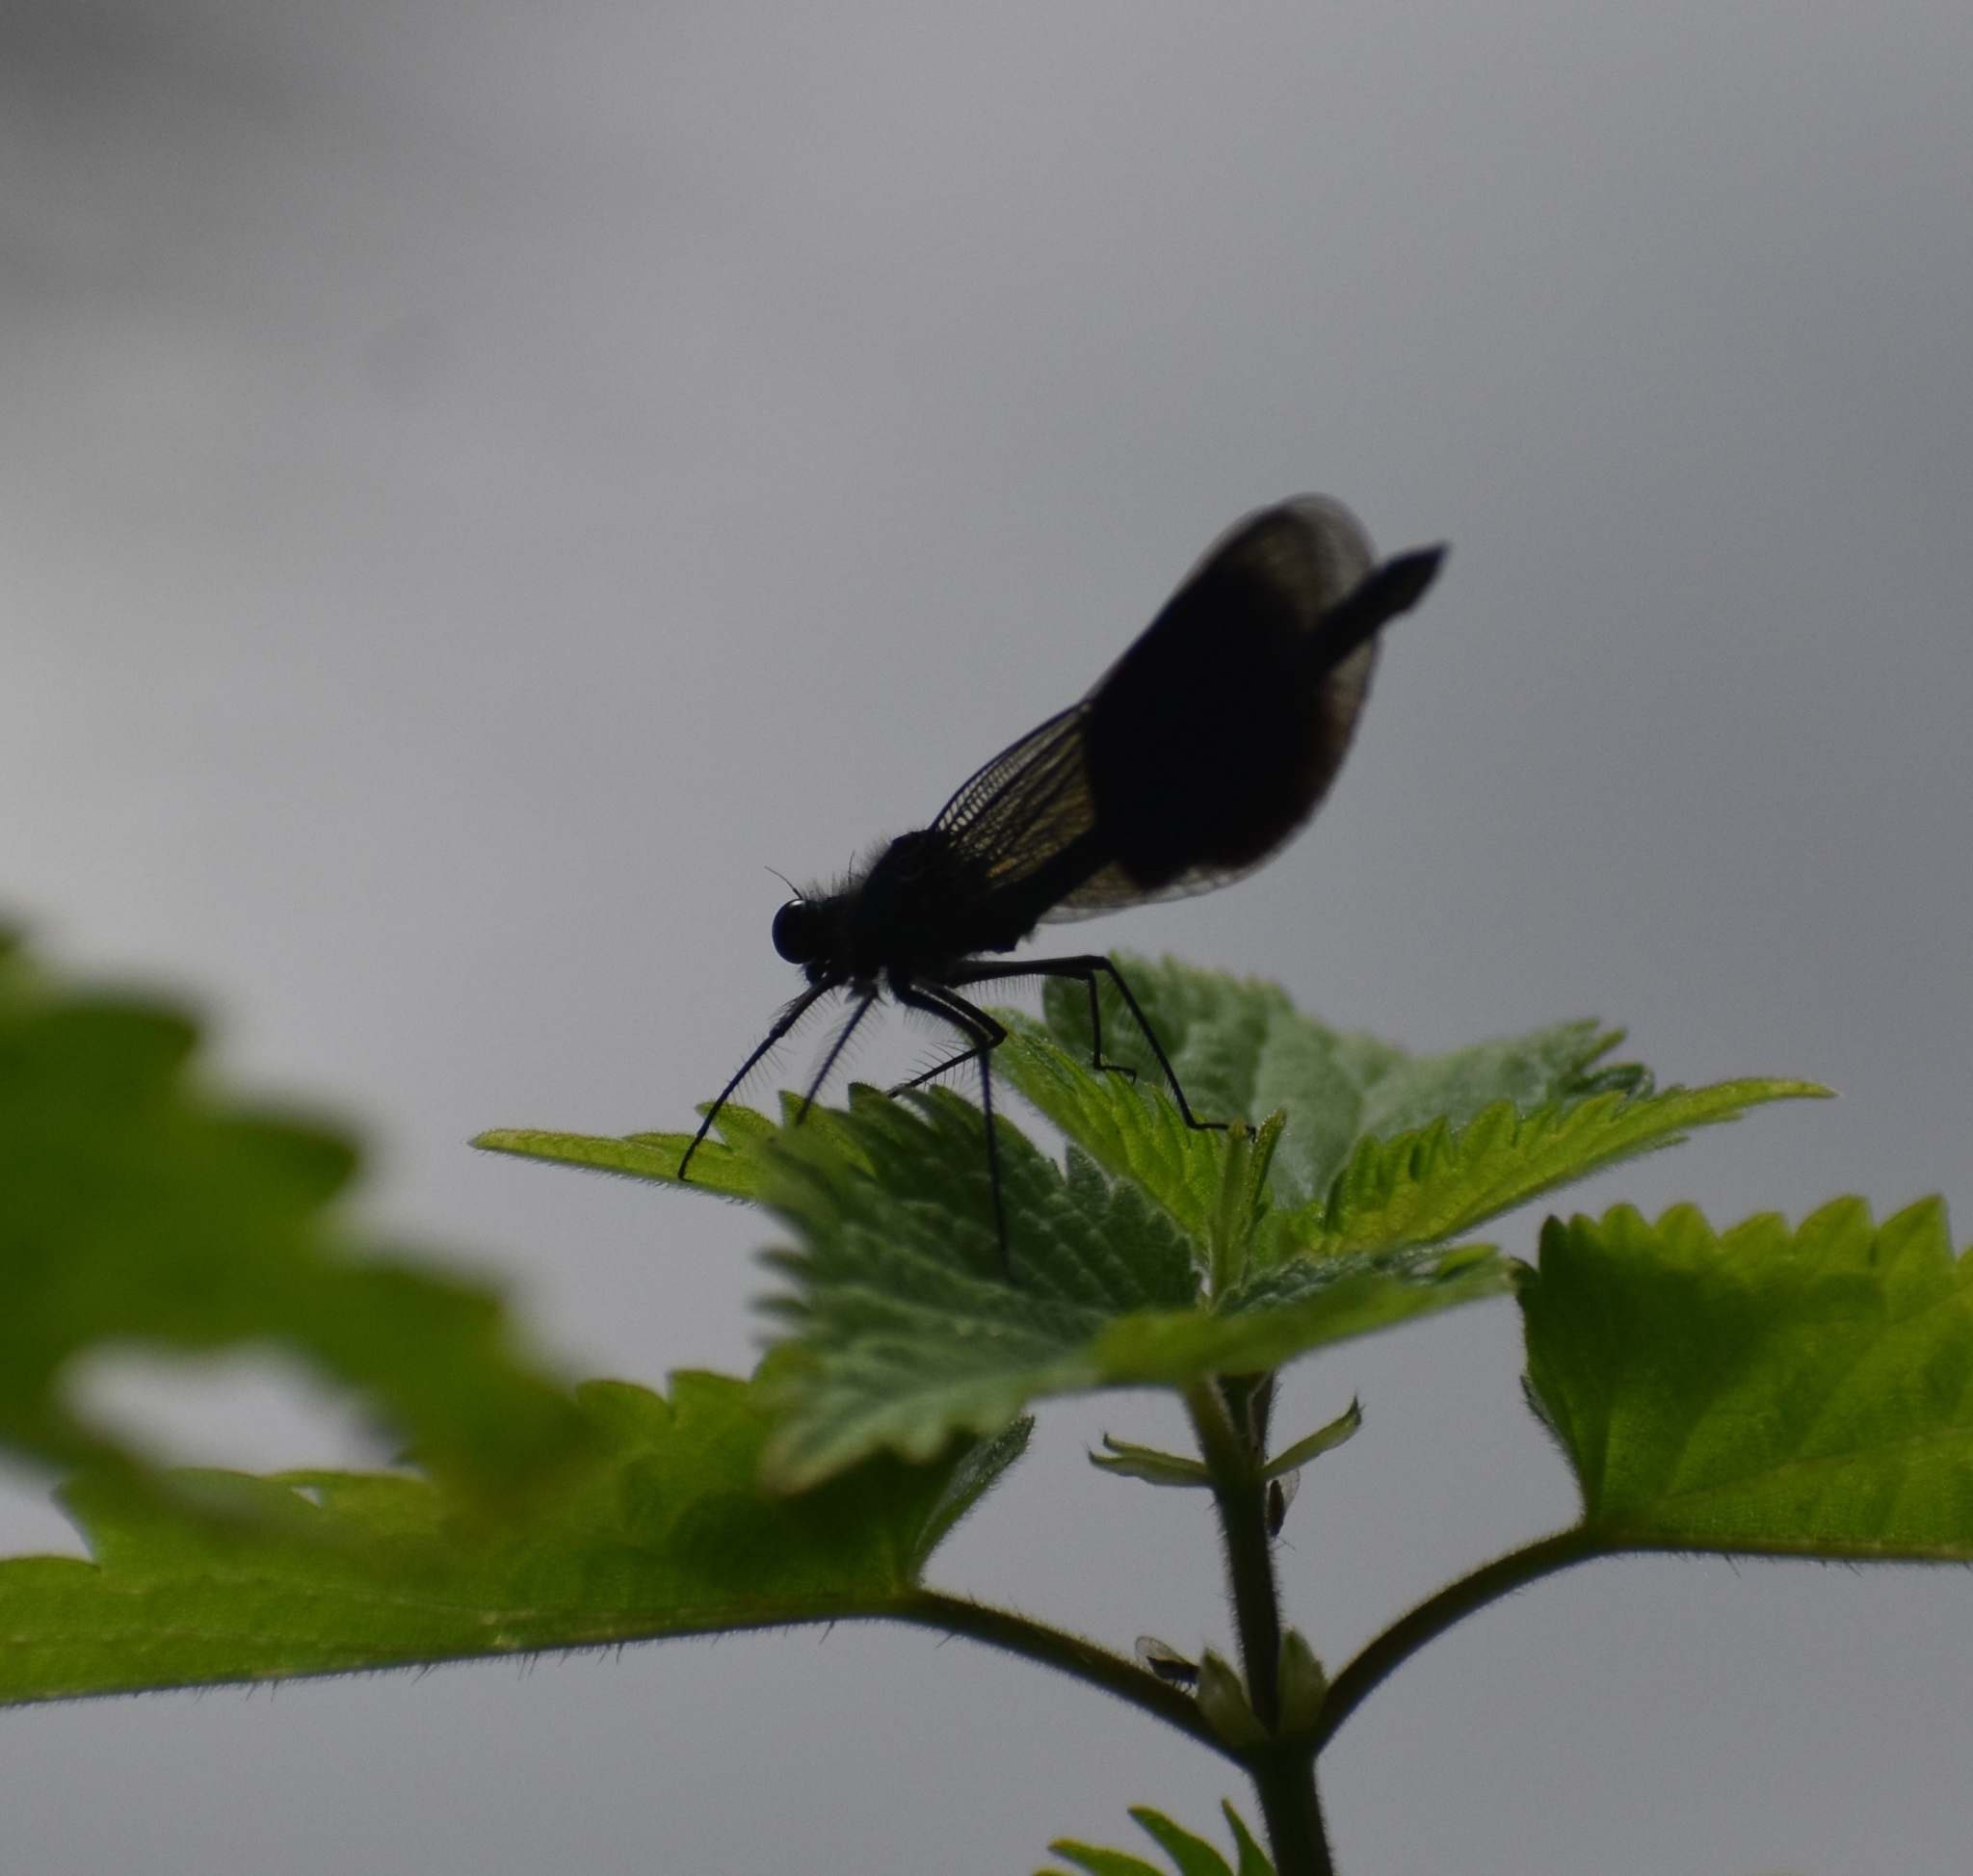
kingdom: Animalia
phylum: Arthropoda
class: Insecta
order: Odonata
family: Calopterygidae
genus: Calopteryx
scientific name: Calopteryx splendens
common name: Banded demoiselle
